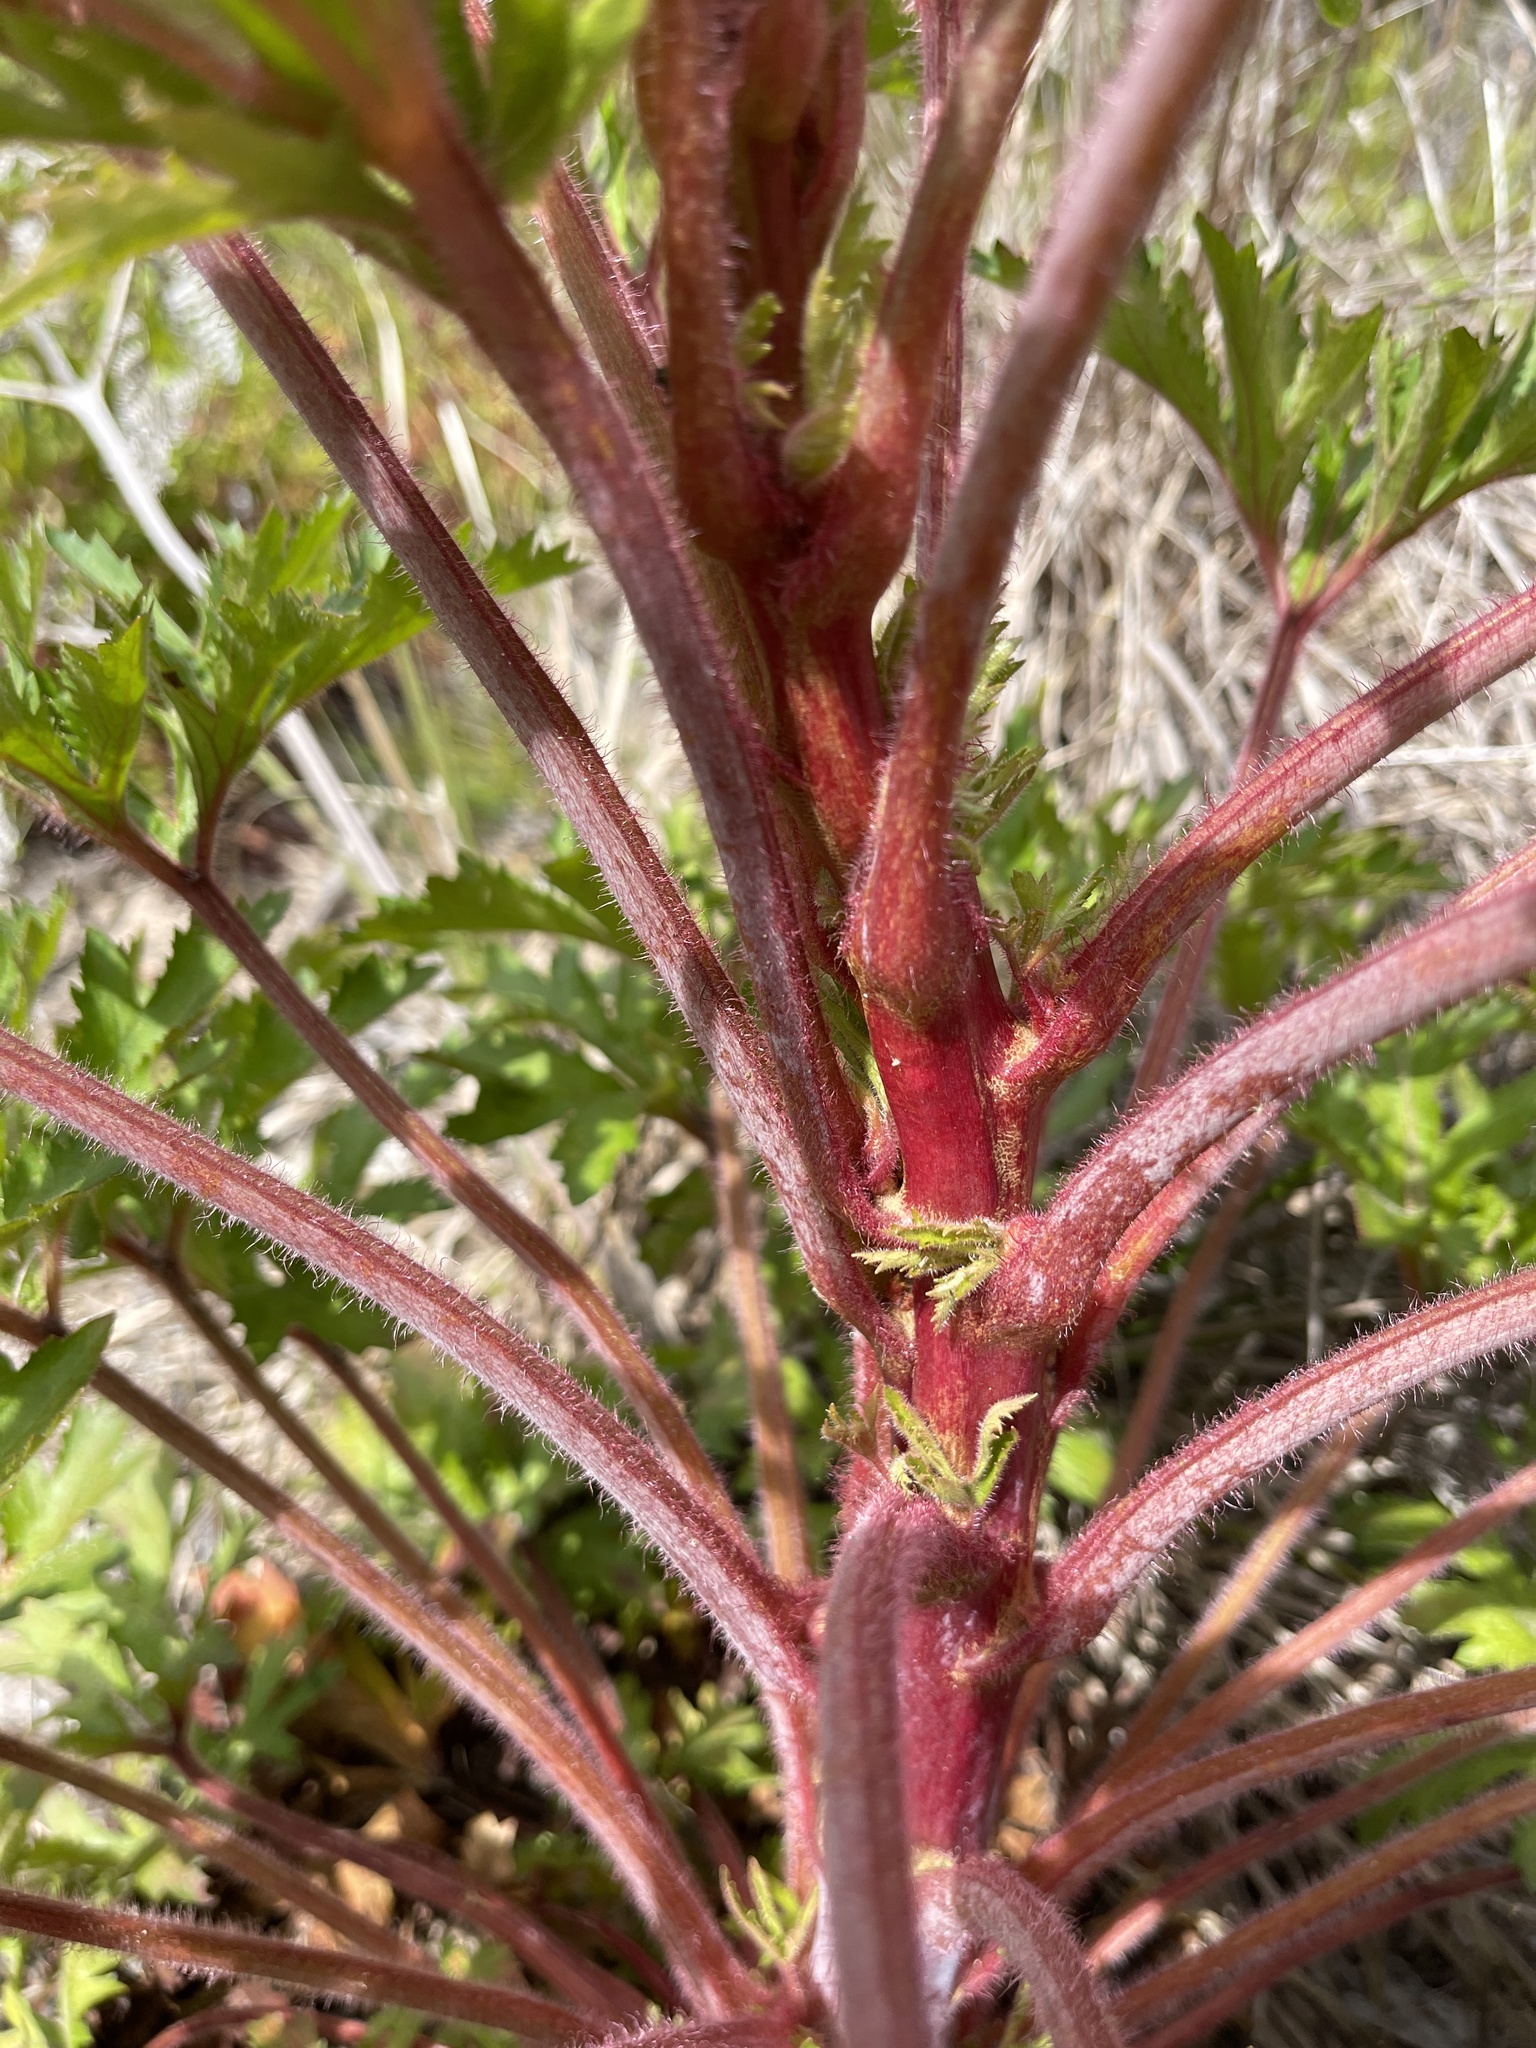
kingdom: Plantae
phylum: Tracheophyta
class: Magnoliopsida
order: Apiales
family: Araliaceae
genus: Trachymene
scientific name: Trachymene composita
